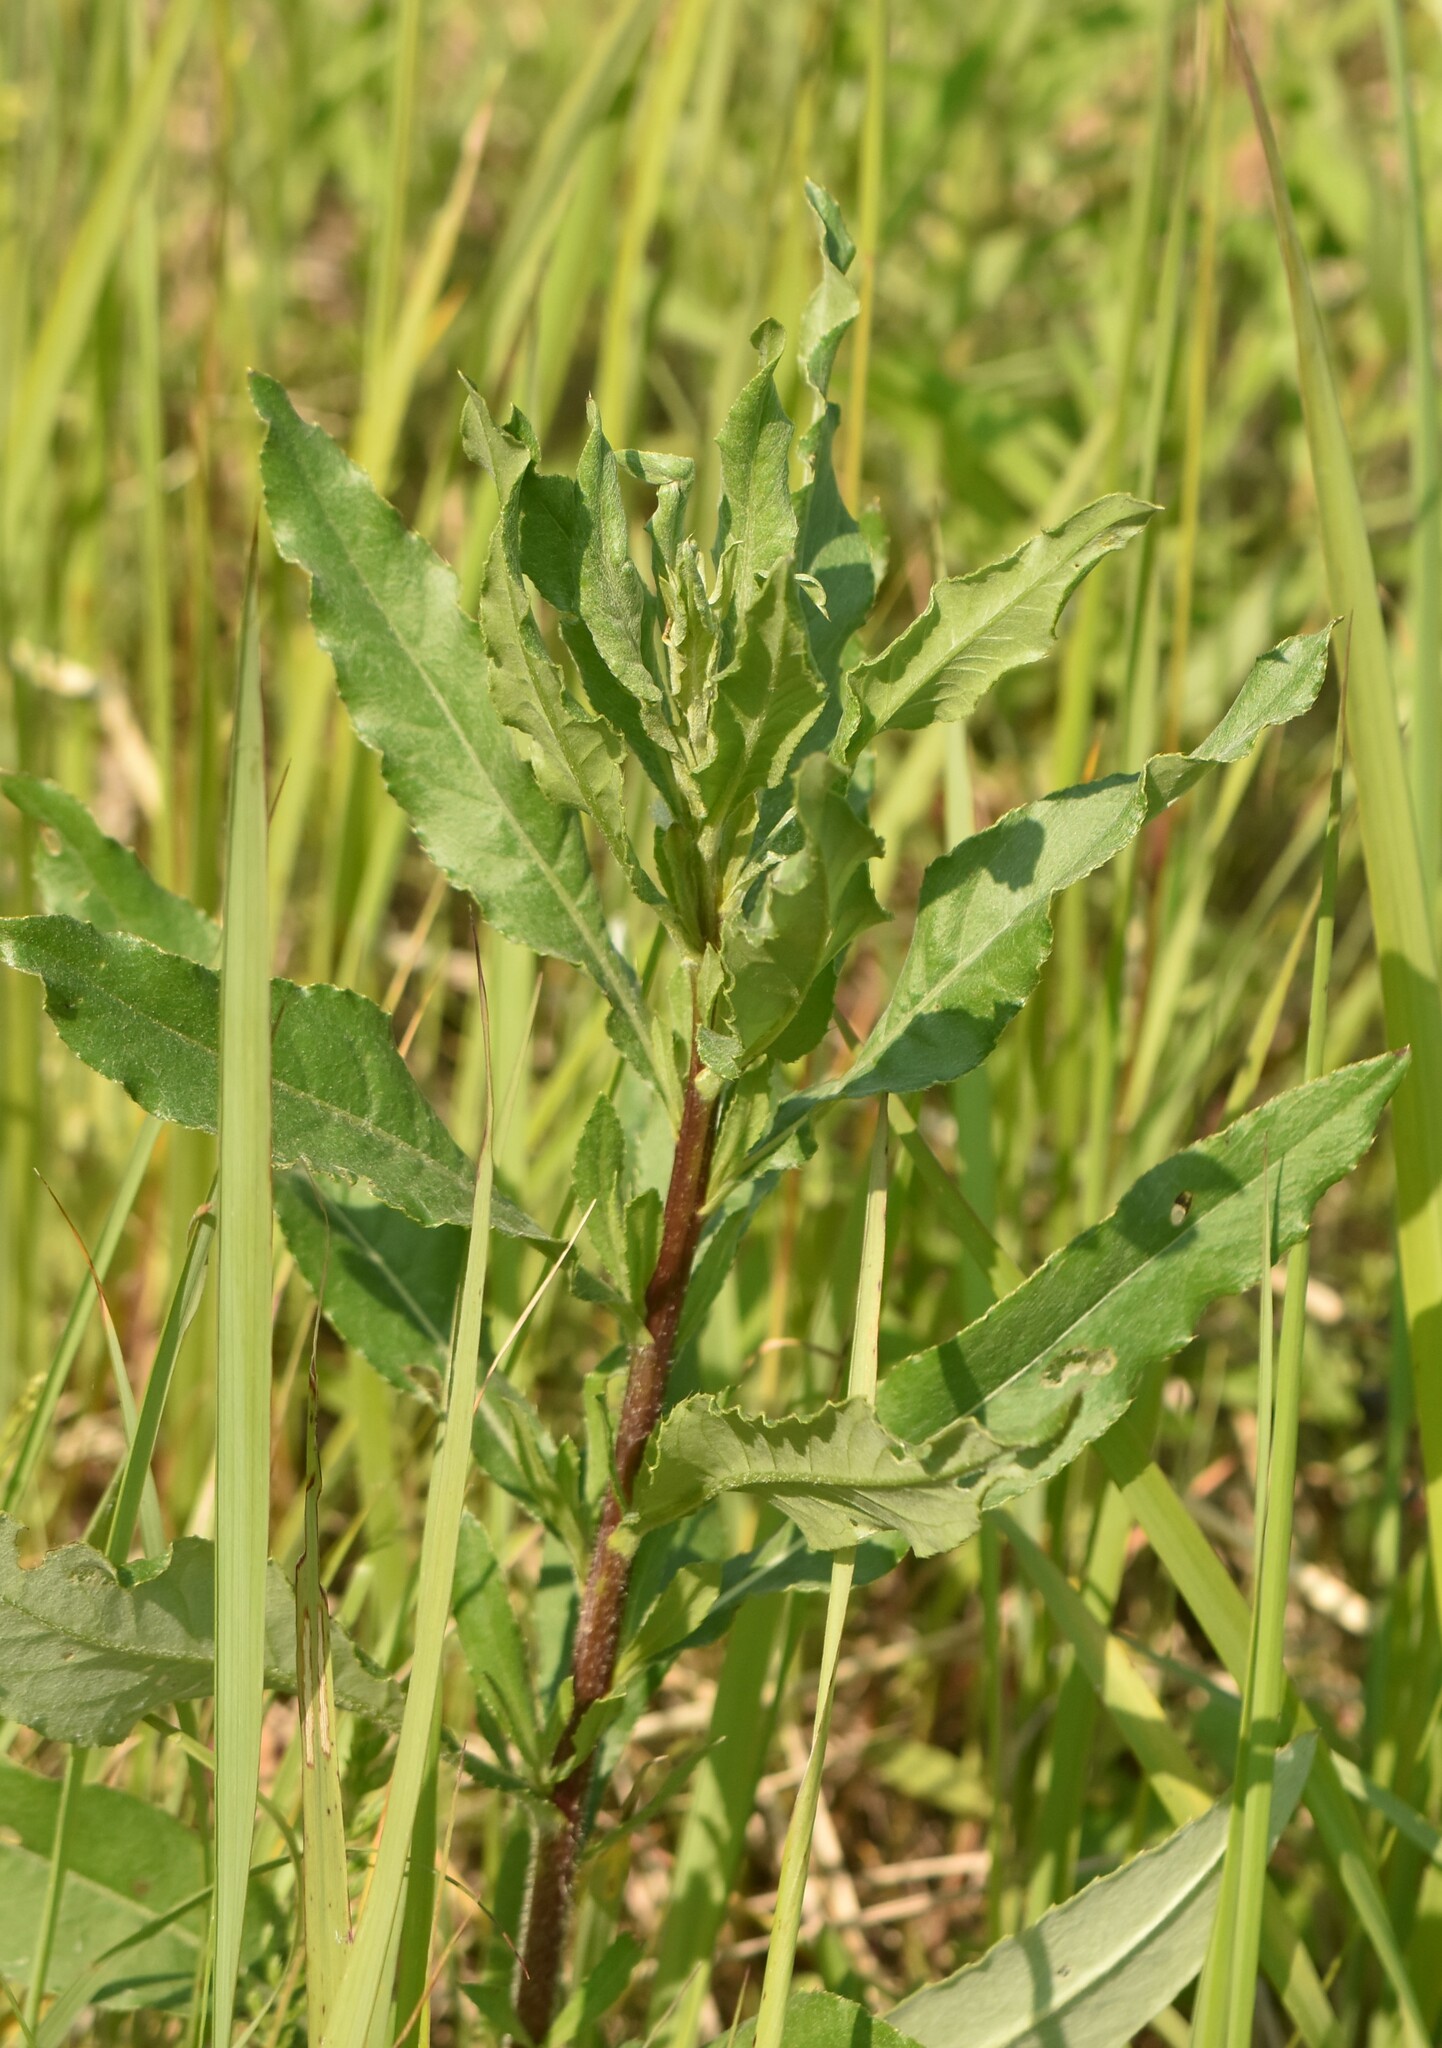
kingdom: Plantae
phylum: Tracheophyta
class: Magnoliopsida
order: Asterales
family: Asteraceae
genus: Cirsium
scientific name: Cirsium arvense
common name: Creeping thistle
